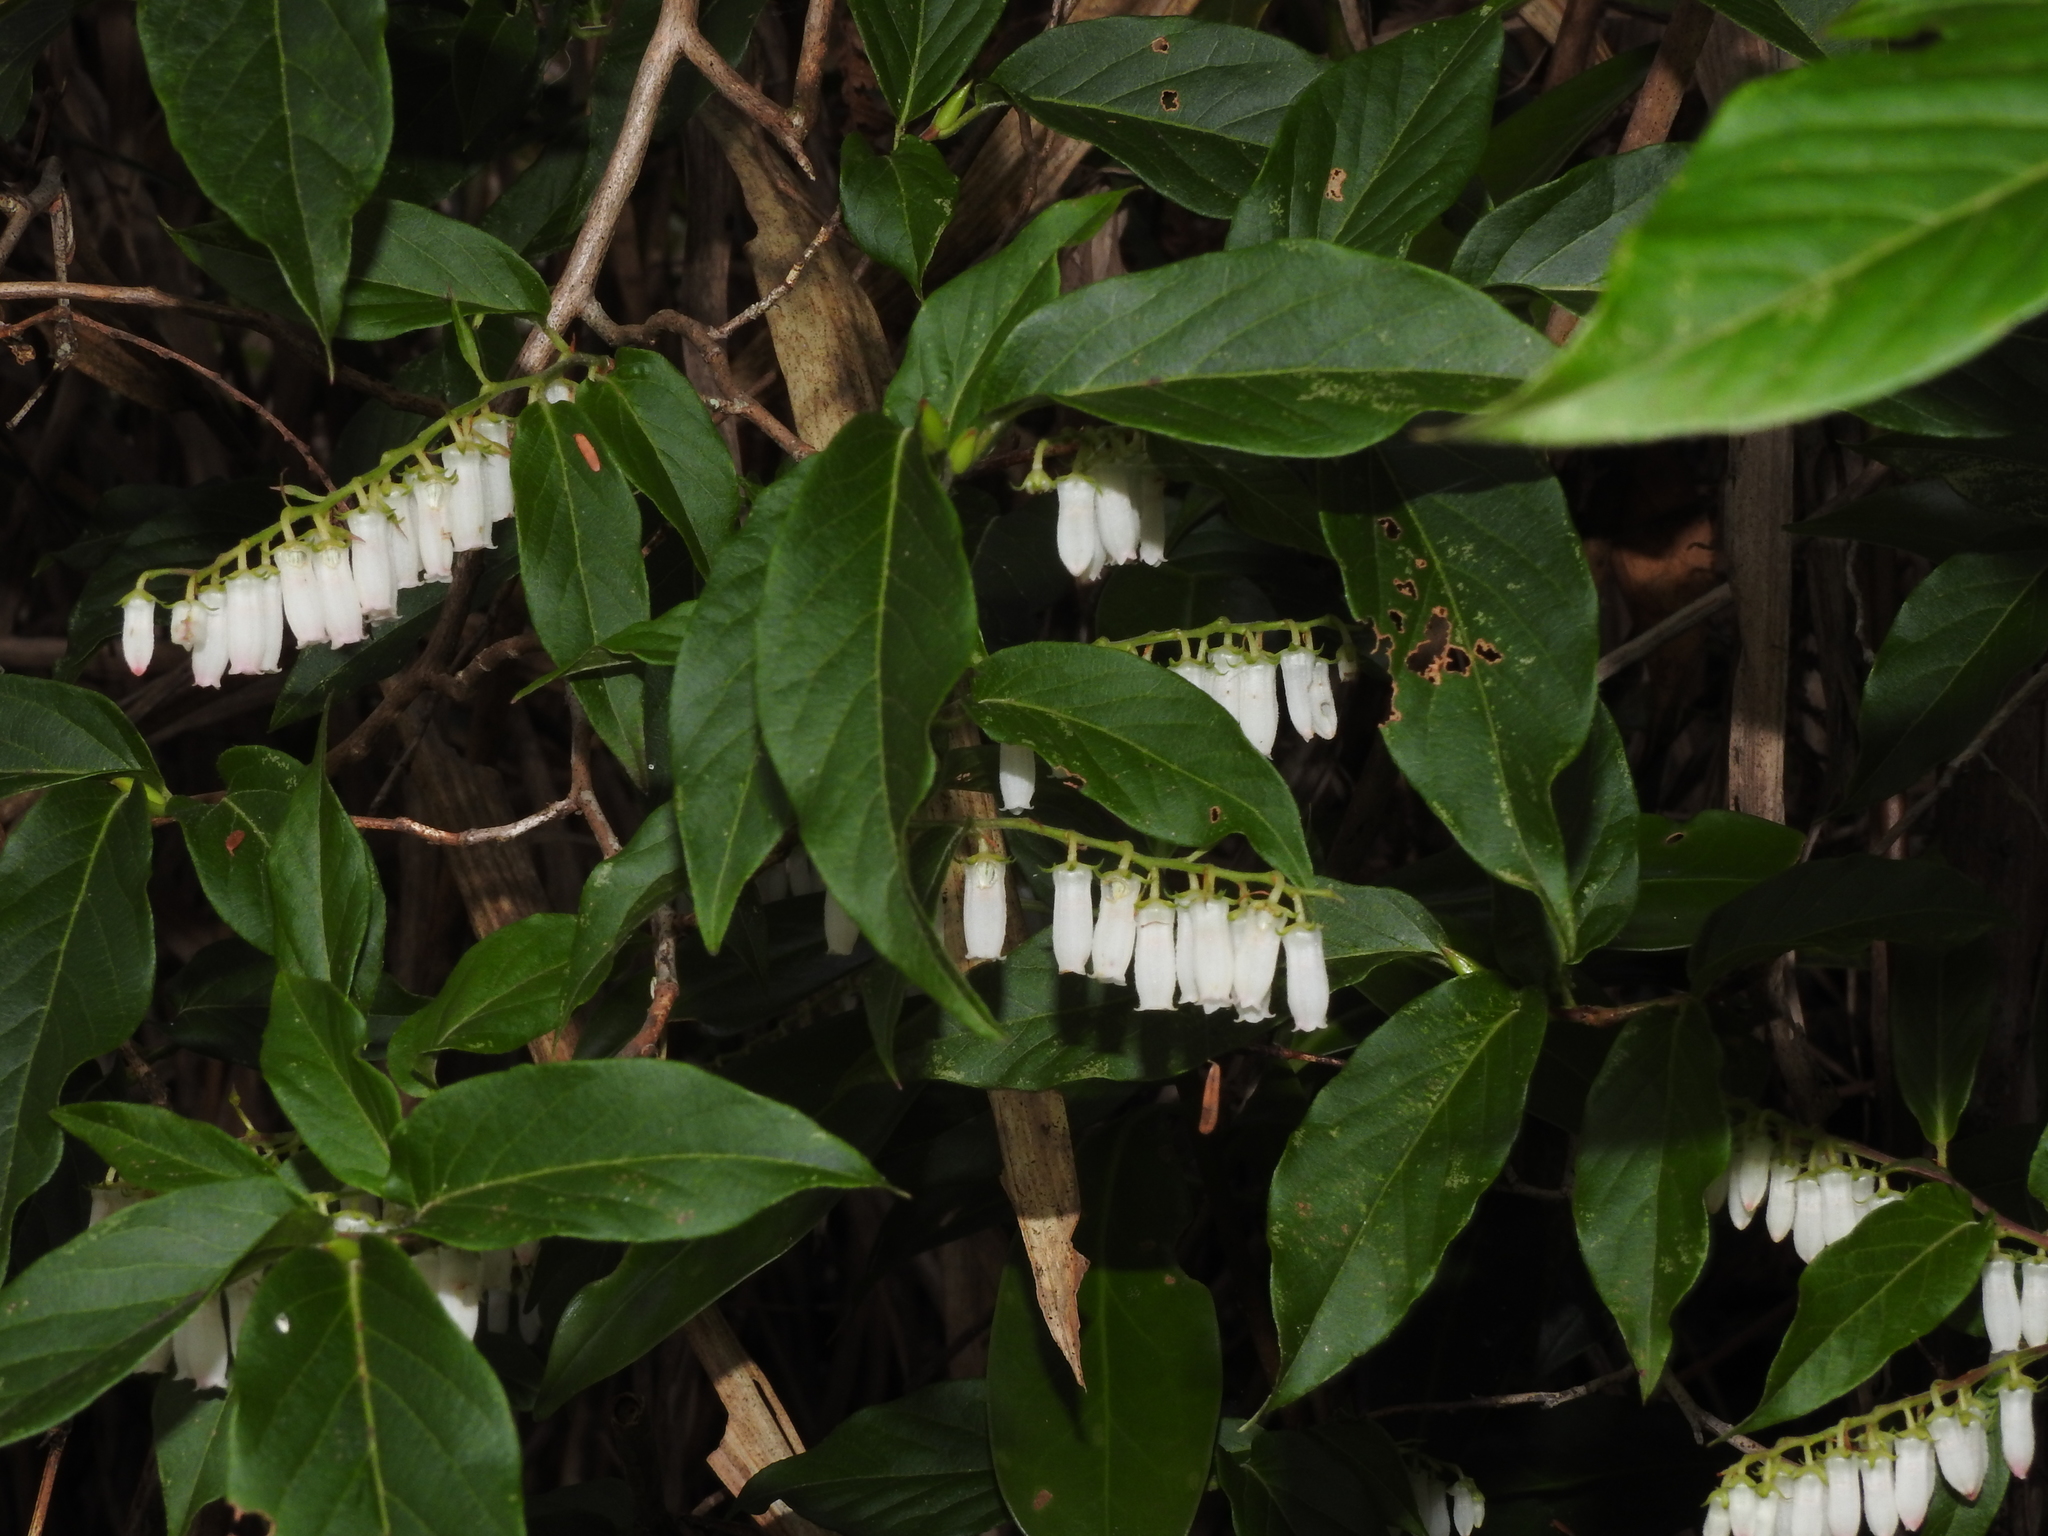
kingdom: Plantae
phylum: Tracheophyta
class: Magnoliopsida
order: Ericales
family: Ericaceae
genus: Lyonia
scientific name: Lyonia ovalifolia
